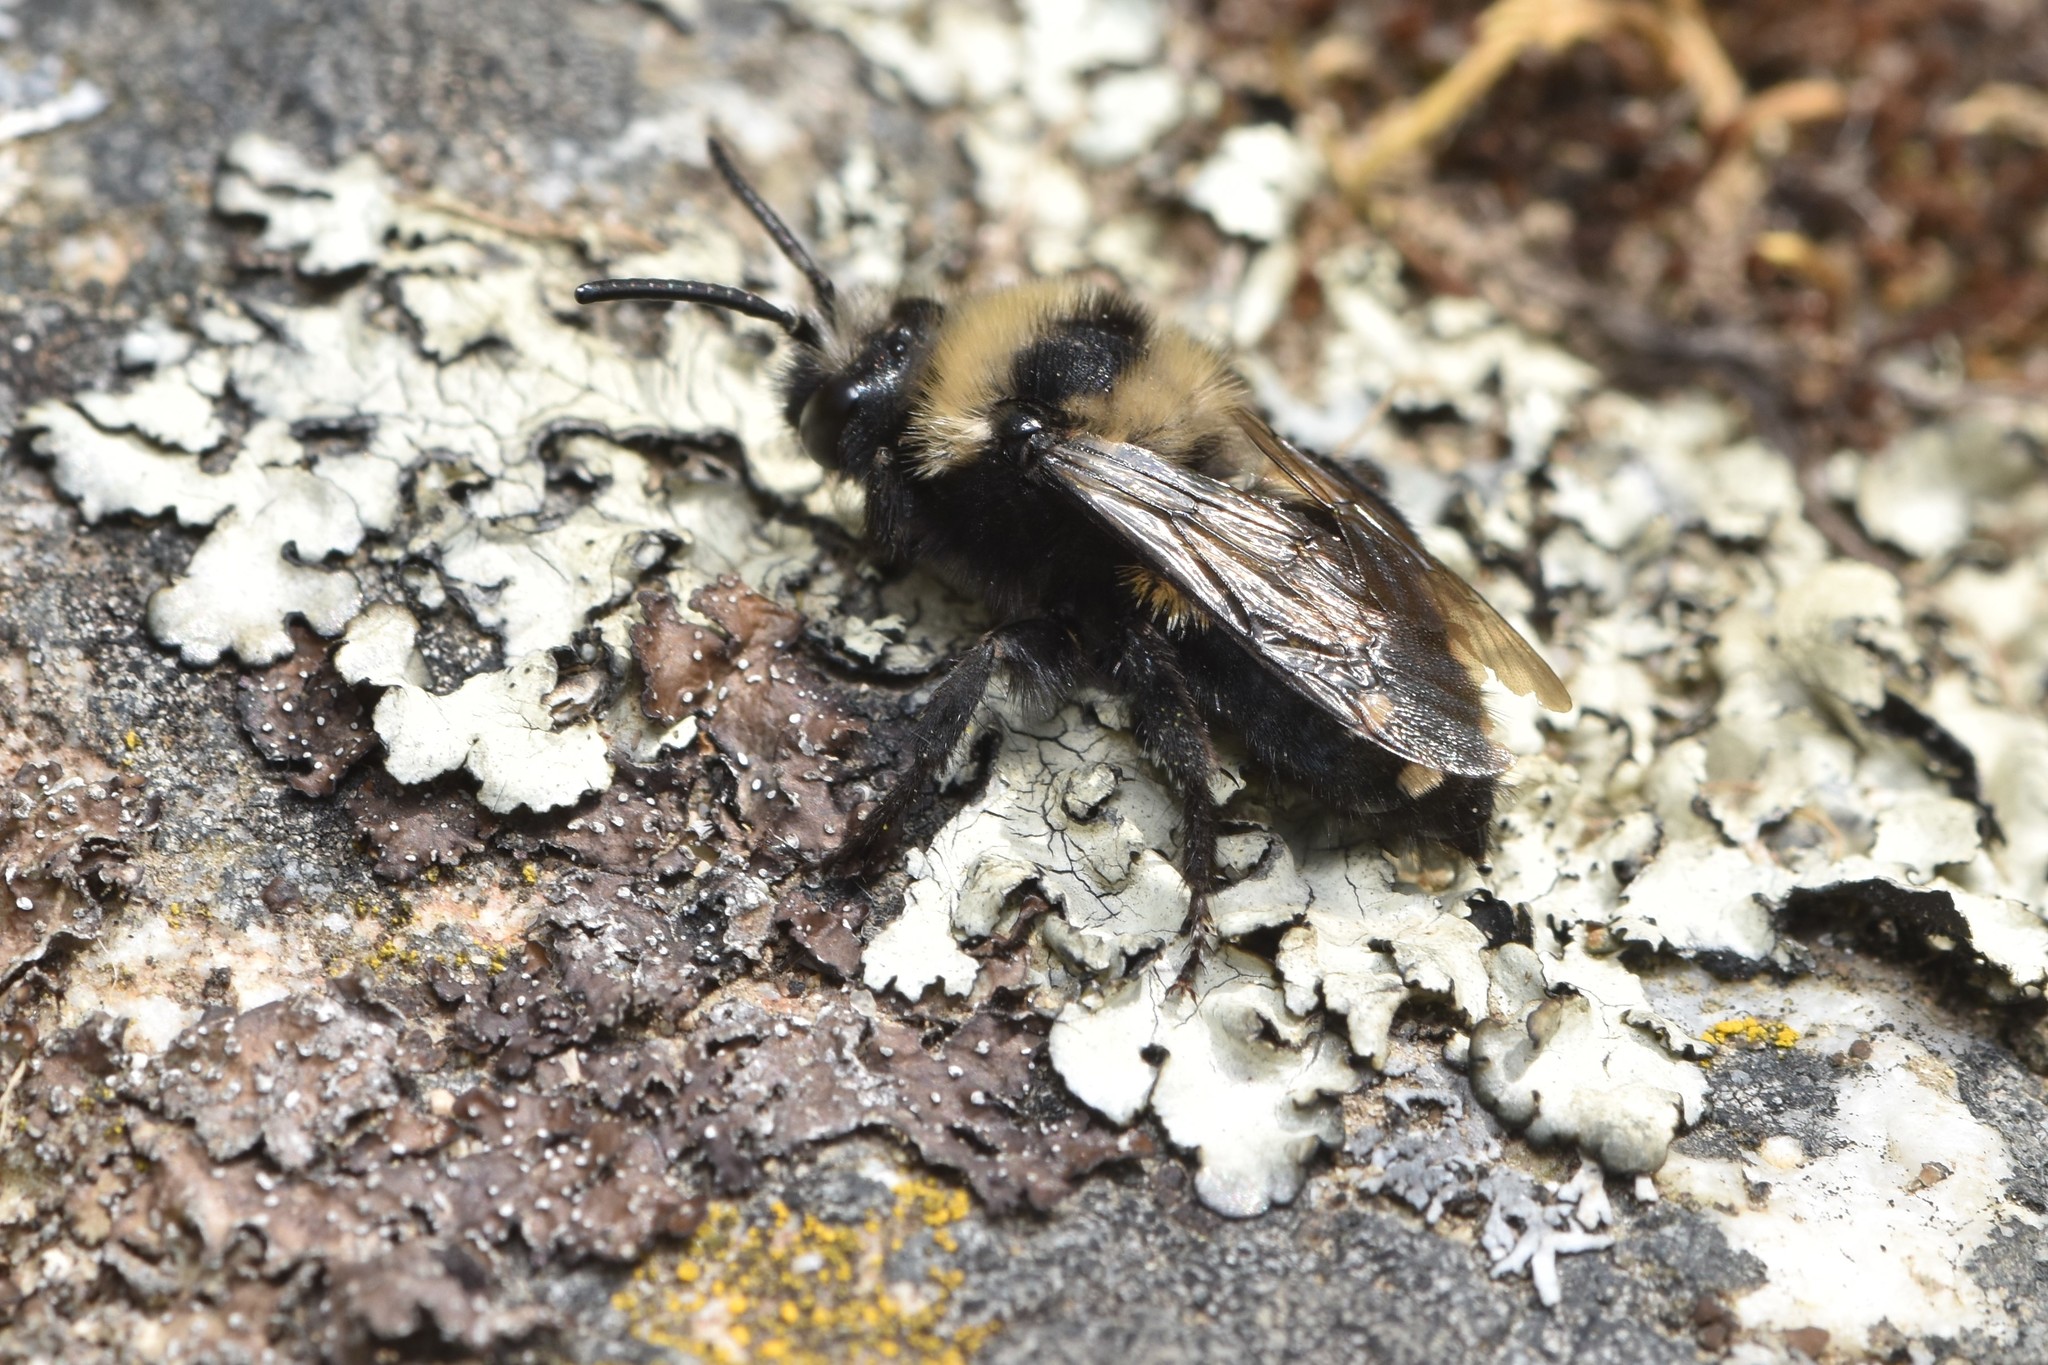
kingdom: Animalia
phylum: Arthropoda
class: Insecta
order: Hymenoptera
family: Apidae
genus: Melecta
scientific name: Melecta separata
